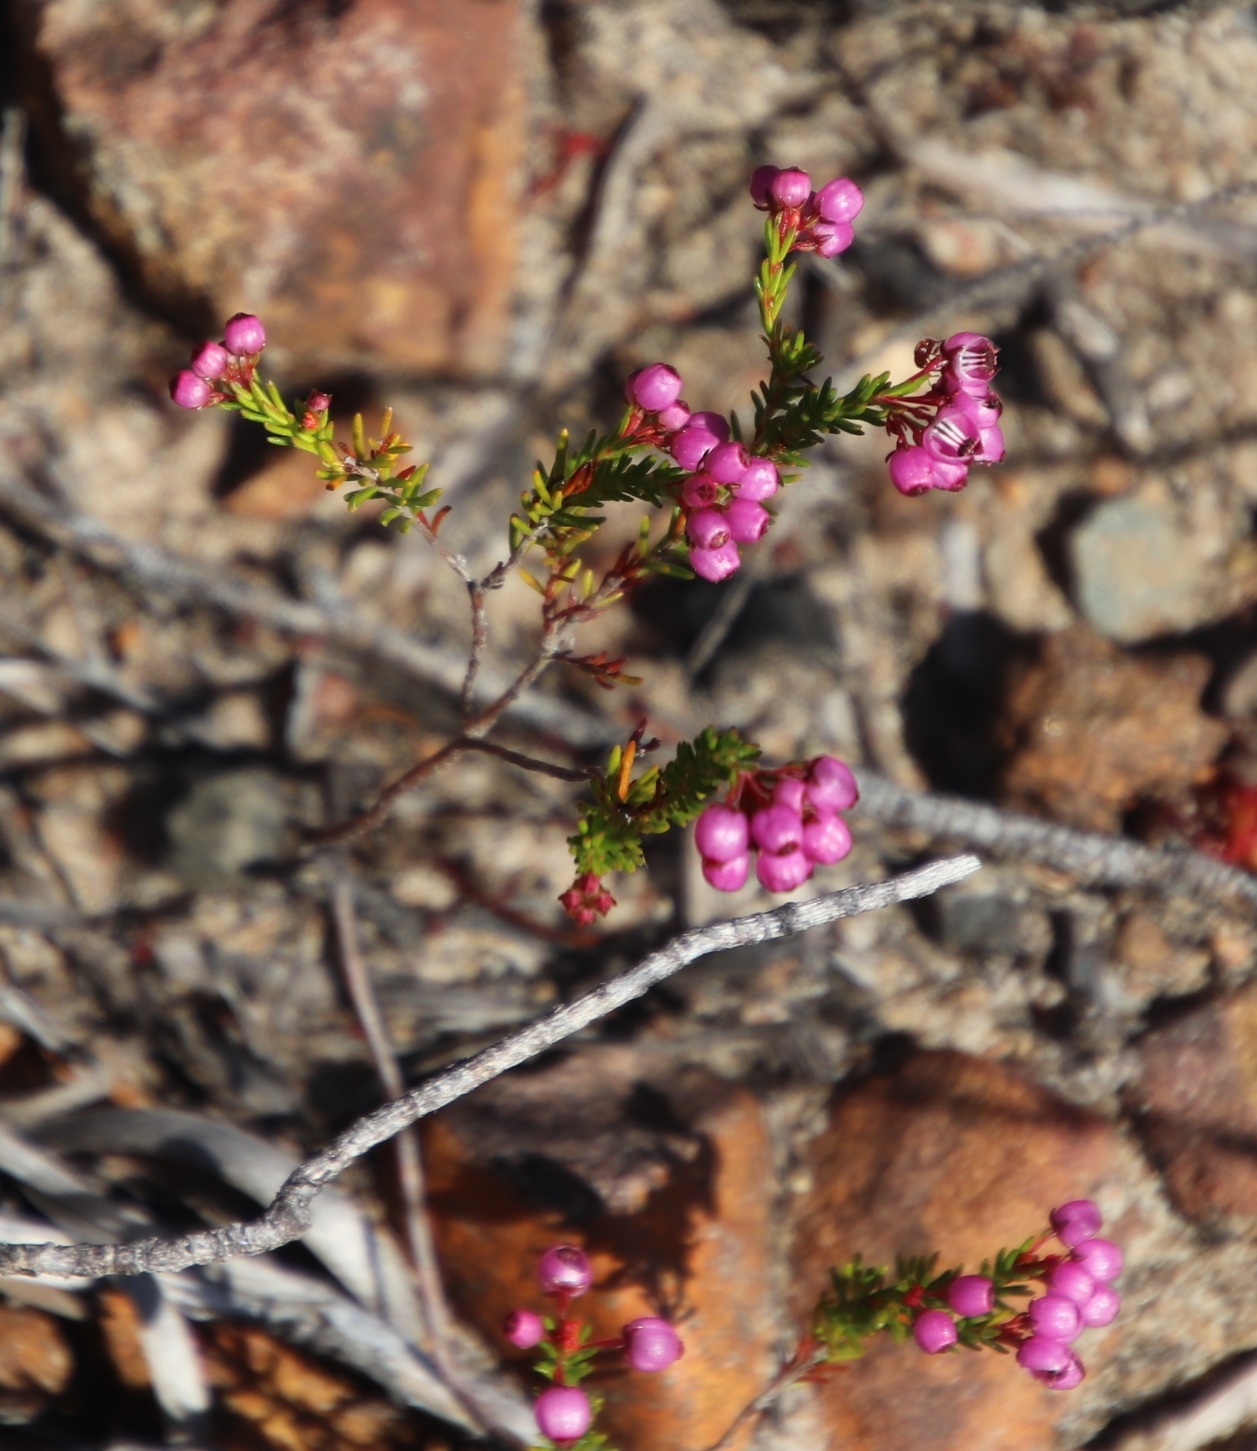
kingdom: Plantae
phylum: Tracheophyta
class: Magnoliopsida
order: Ericales
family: Ericaceae
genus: Erica
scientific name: Erica multumbellifera
